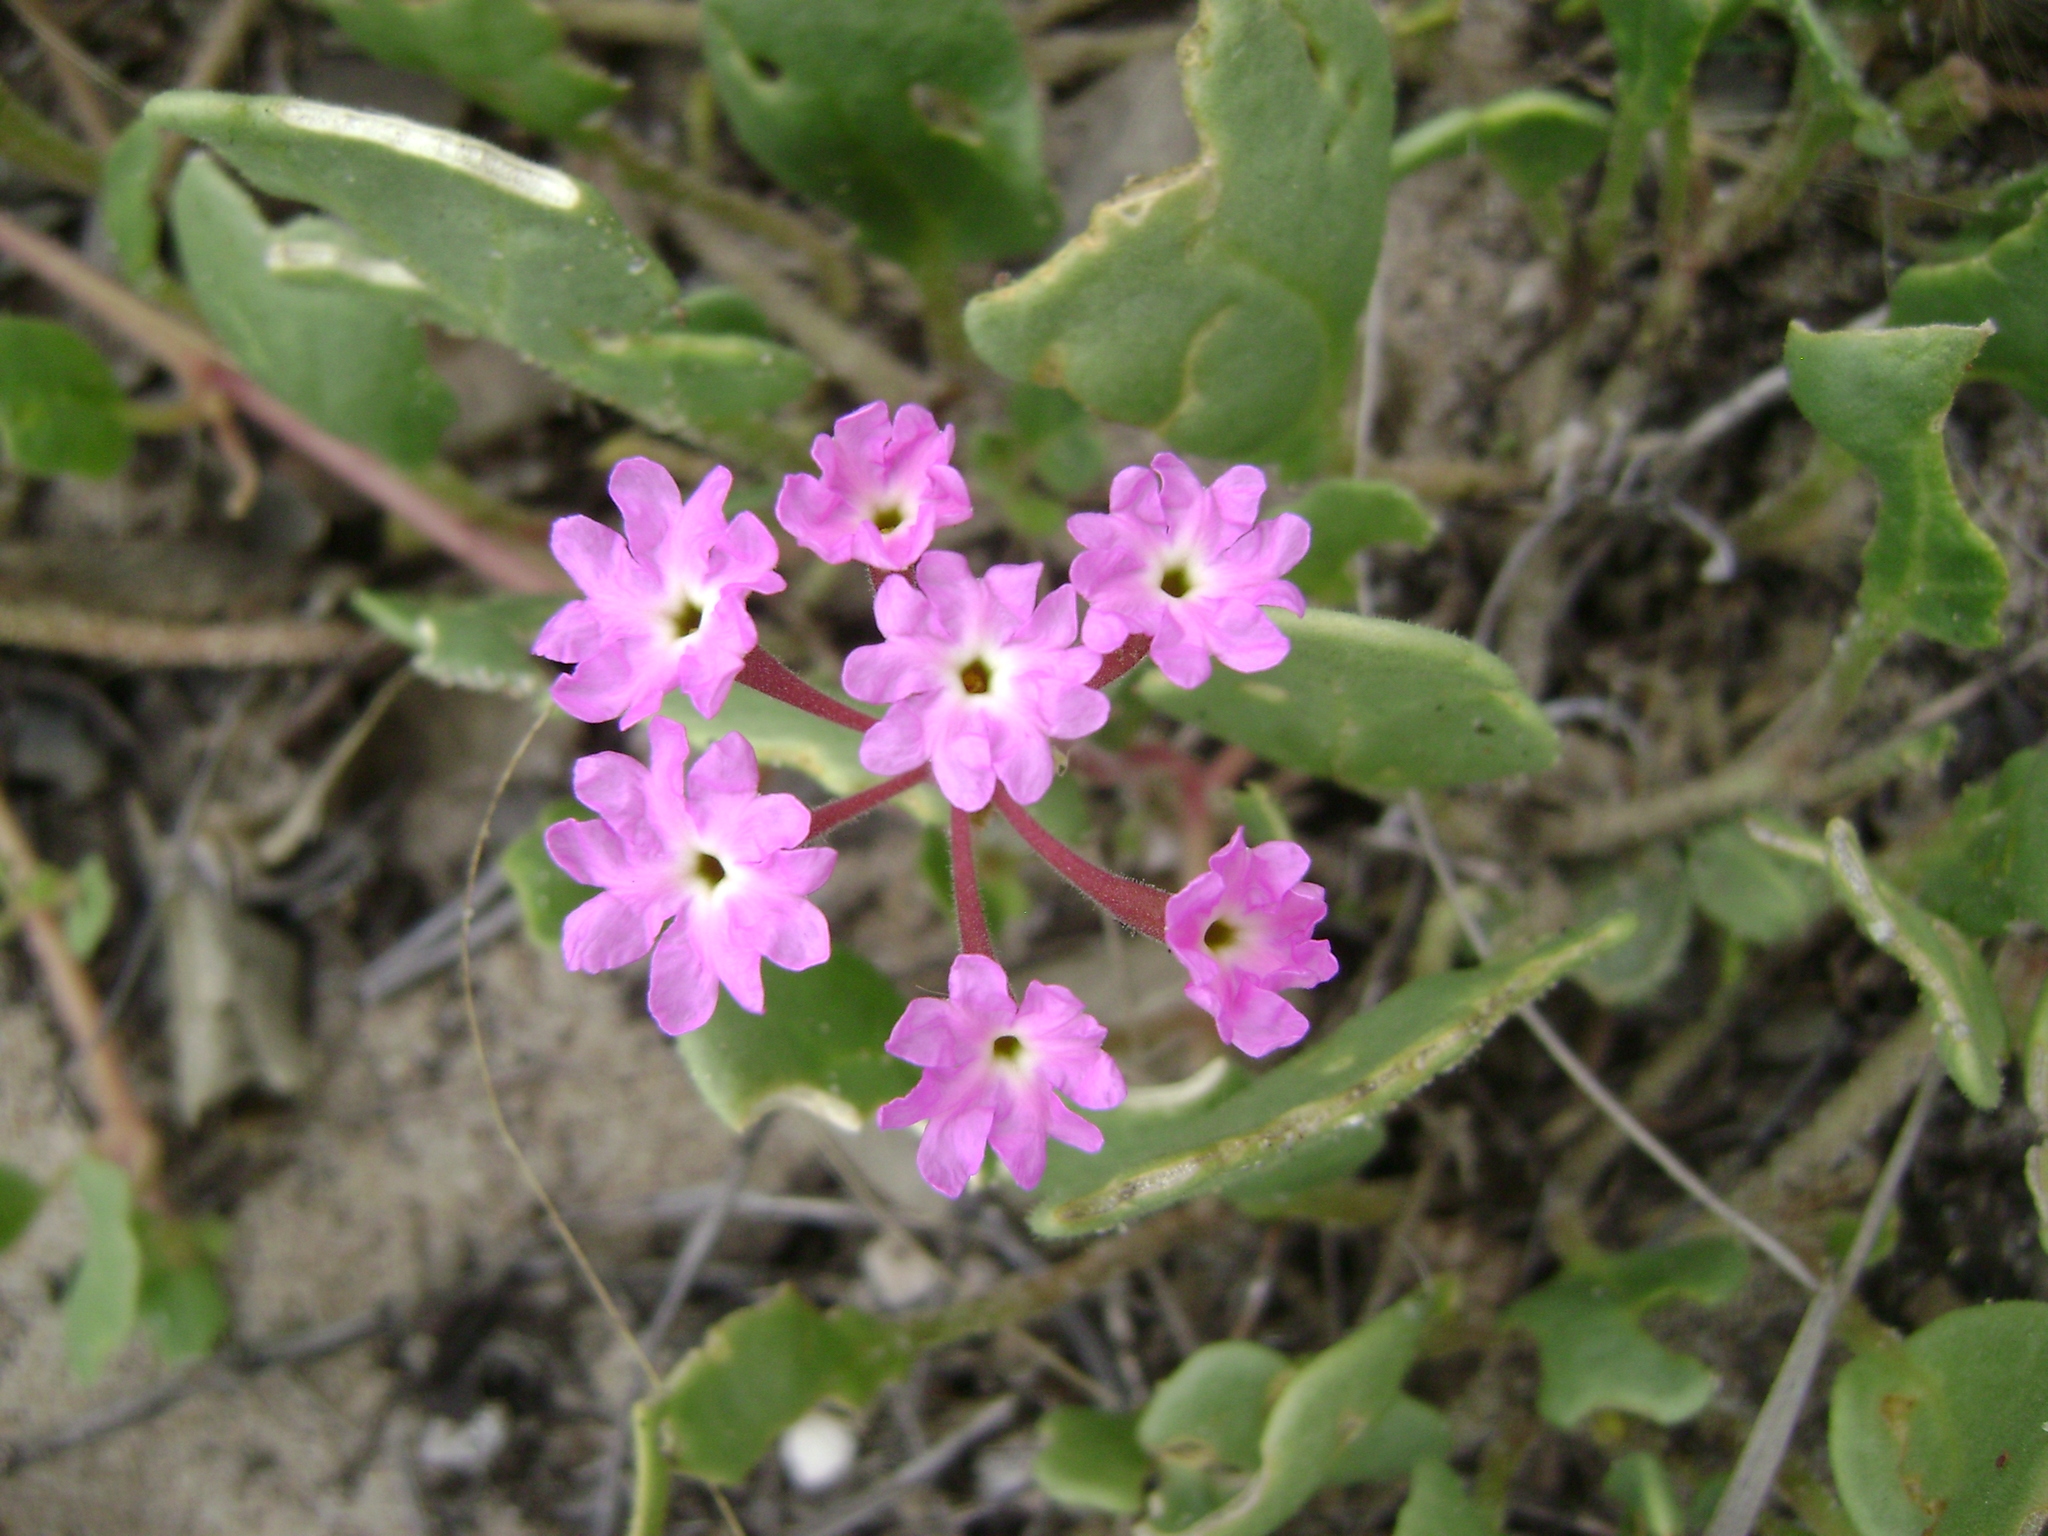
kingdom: Plantae
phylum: Tracheophyta
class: Magnoliopsida
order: Caryophyllales
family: Nyctaginaceae
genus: Abronia
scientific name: Abronia umbellata
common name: Sand-verbena
